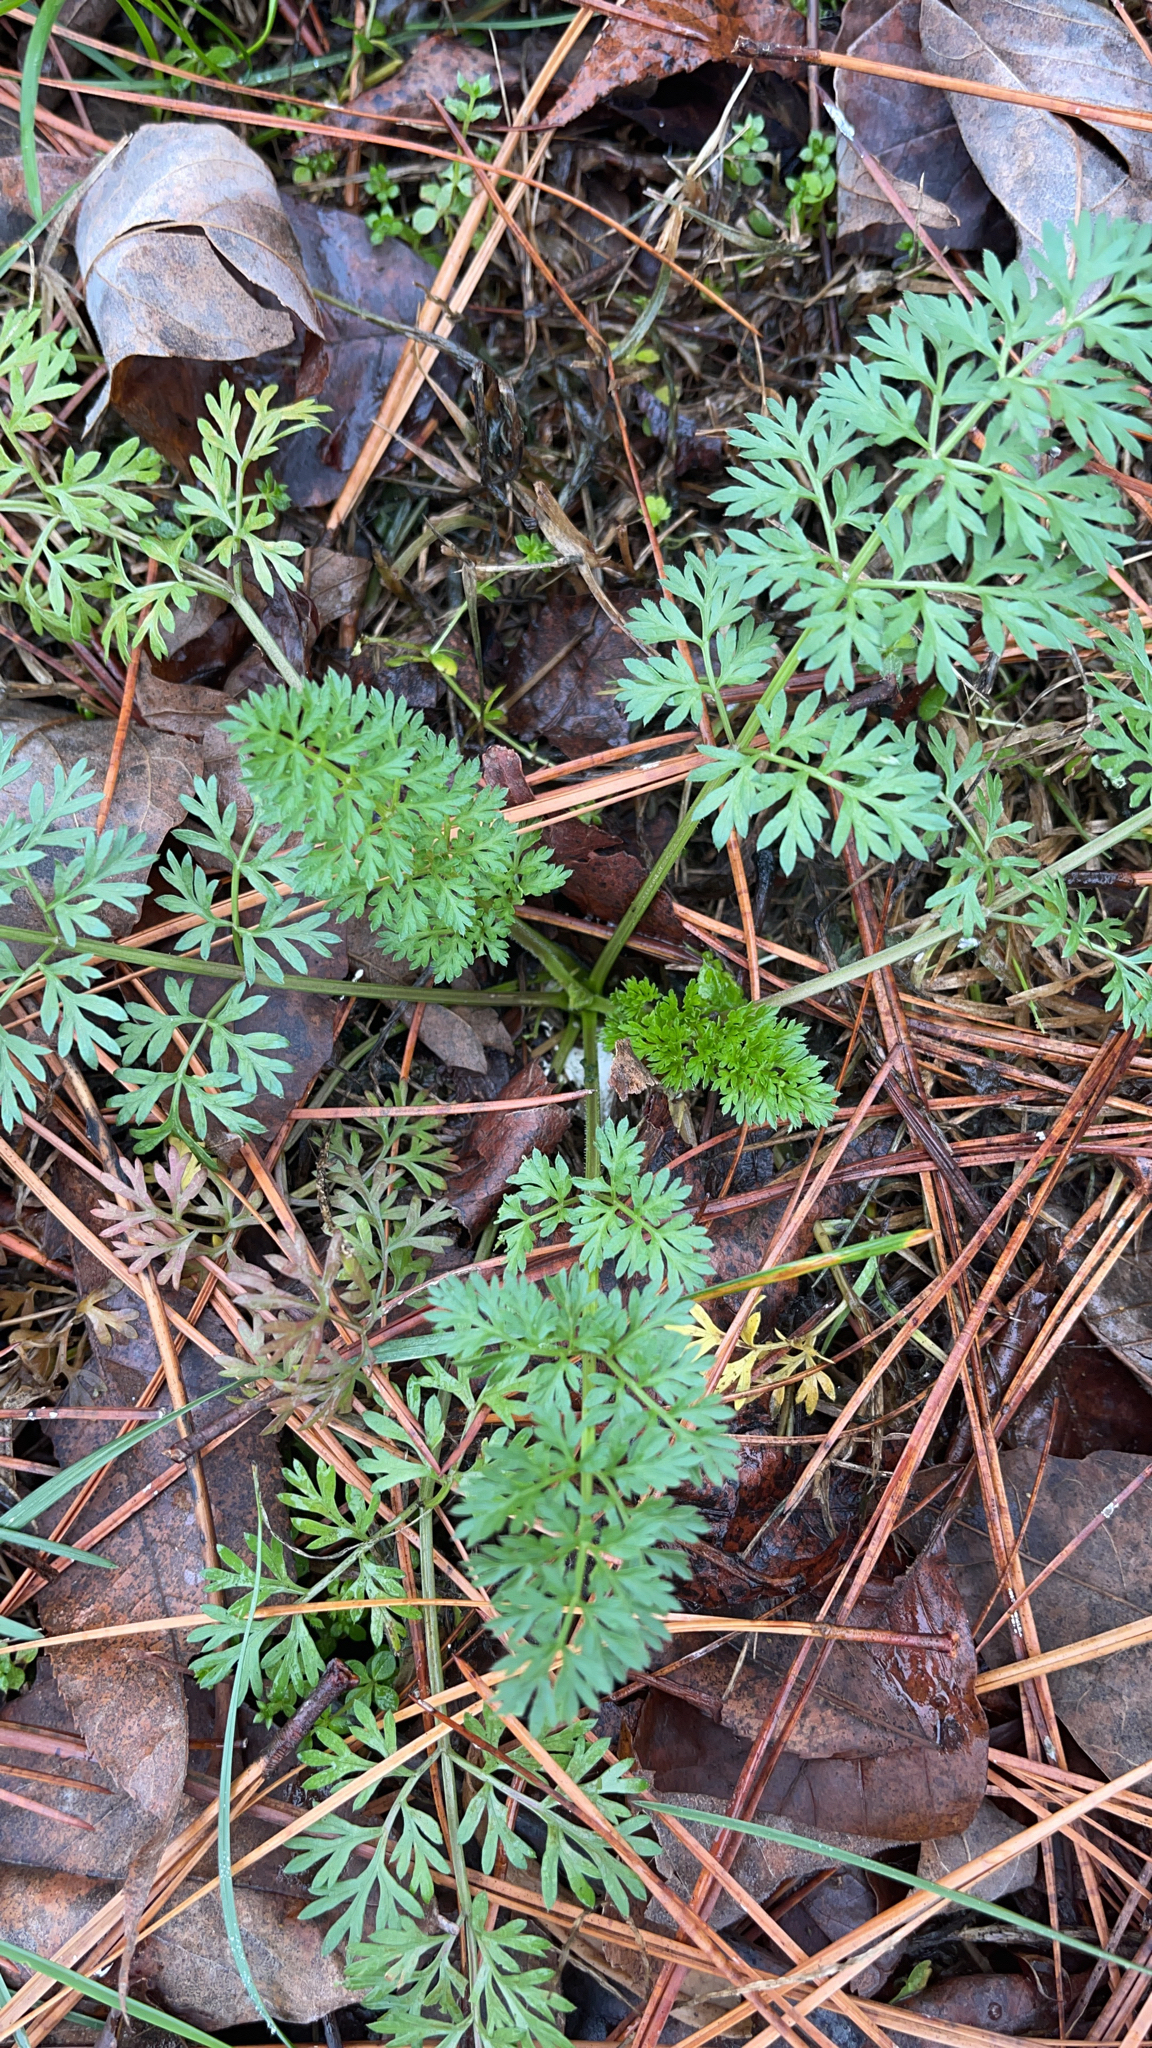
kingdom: Plantae
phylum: Tracheophyta
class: Magnoliopsida
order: Apiales
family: Apiaceae
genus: Daucus
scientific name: Daucus carota
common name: Wild carrot
